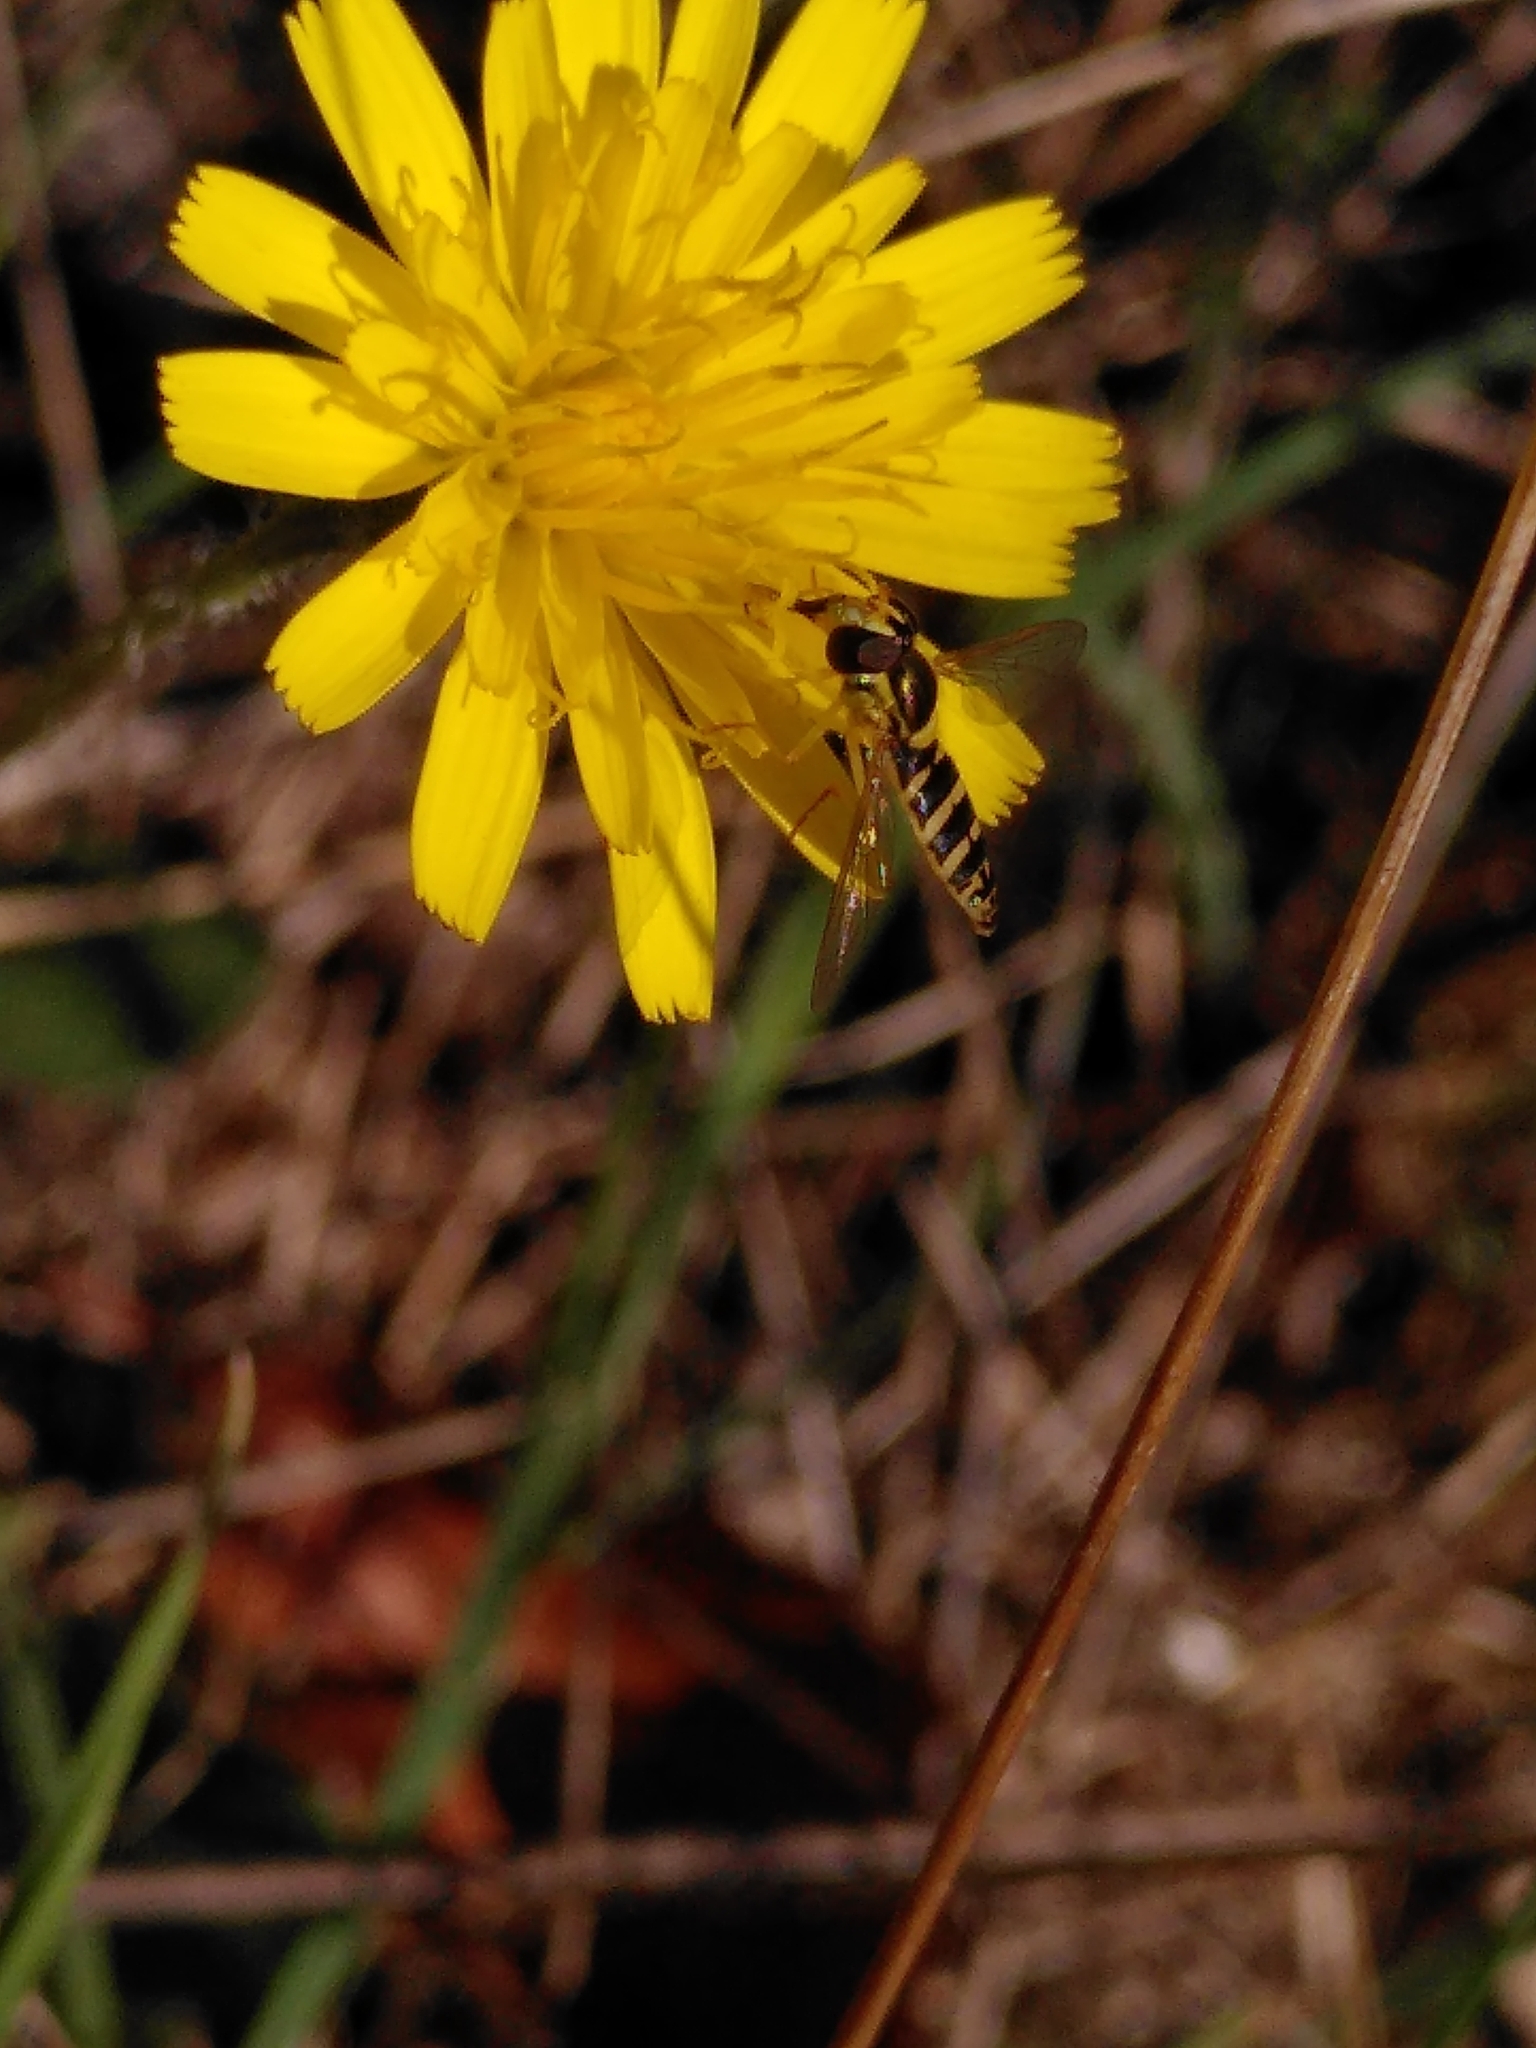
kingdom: Animalia
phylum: Arthropoda
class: Insecta
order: Diptera
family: Syrphidae
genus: Sphaerophoria
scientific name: Sphaerophoria
